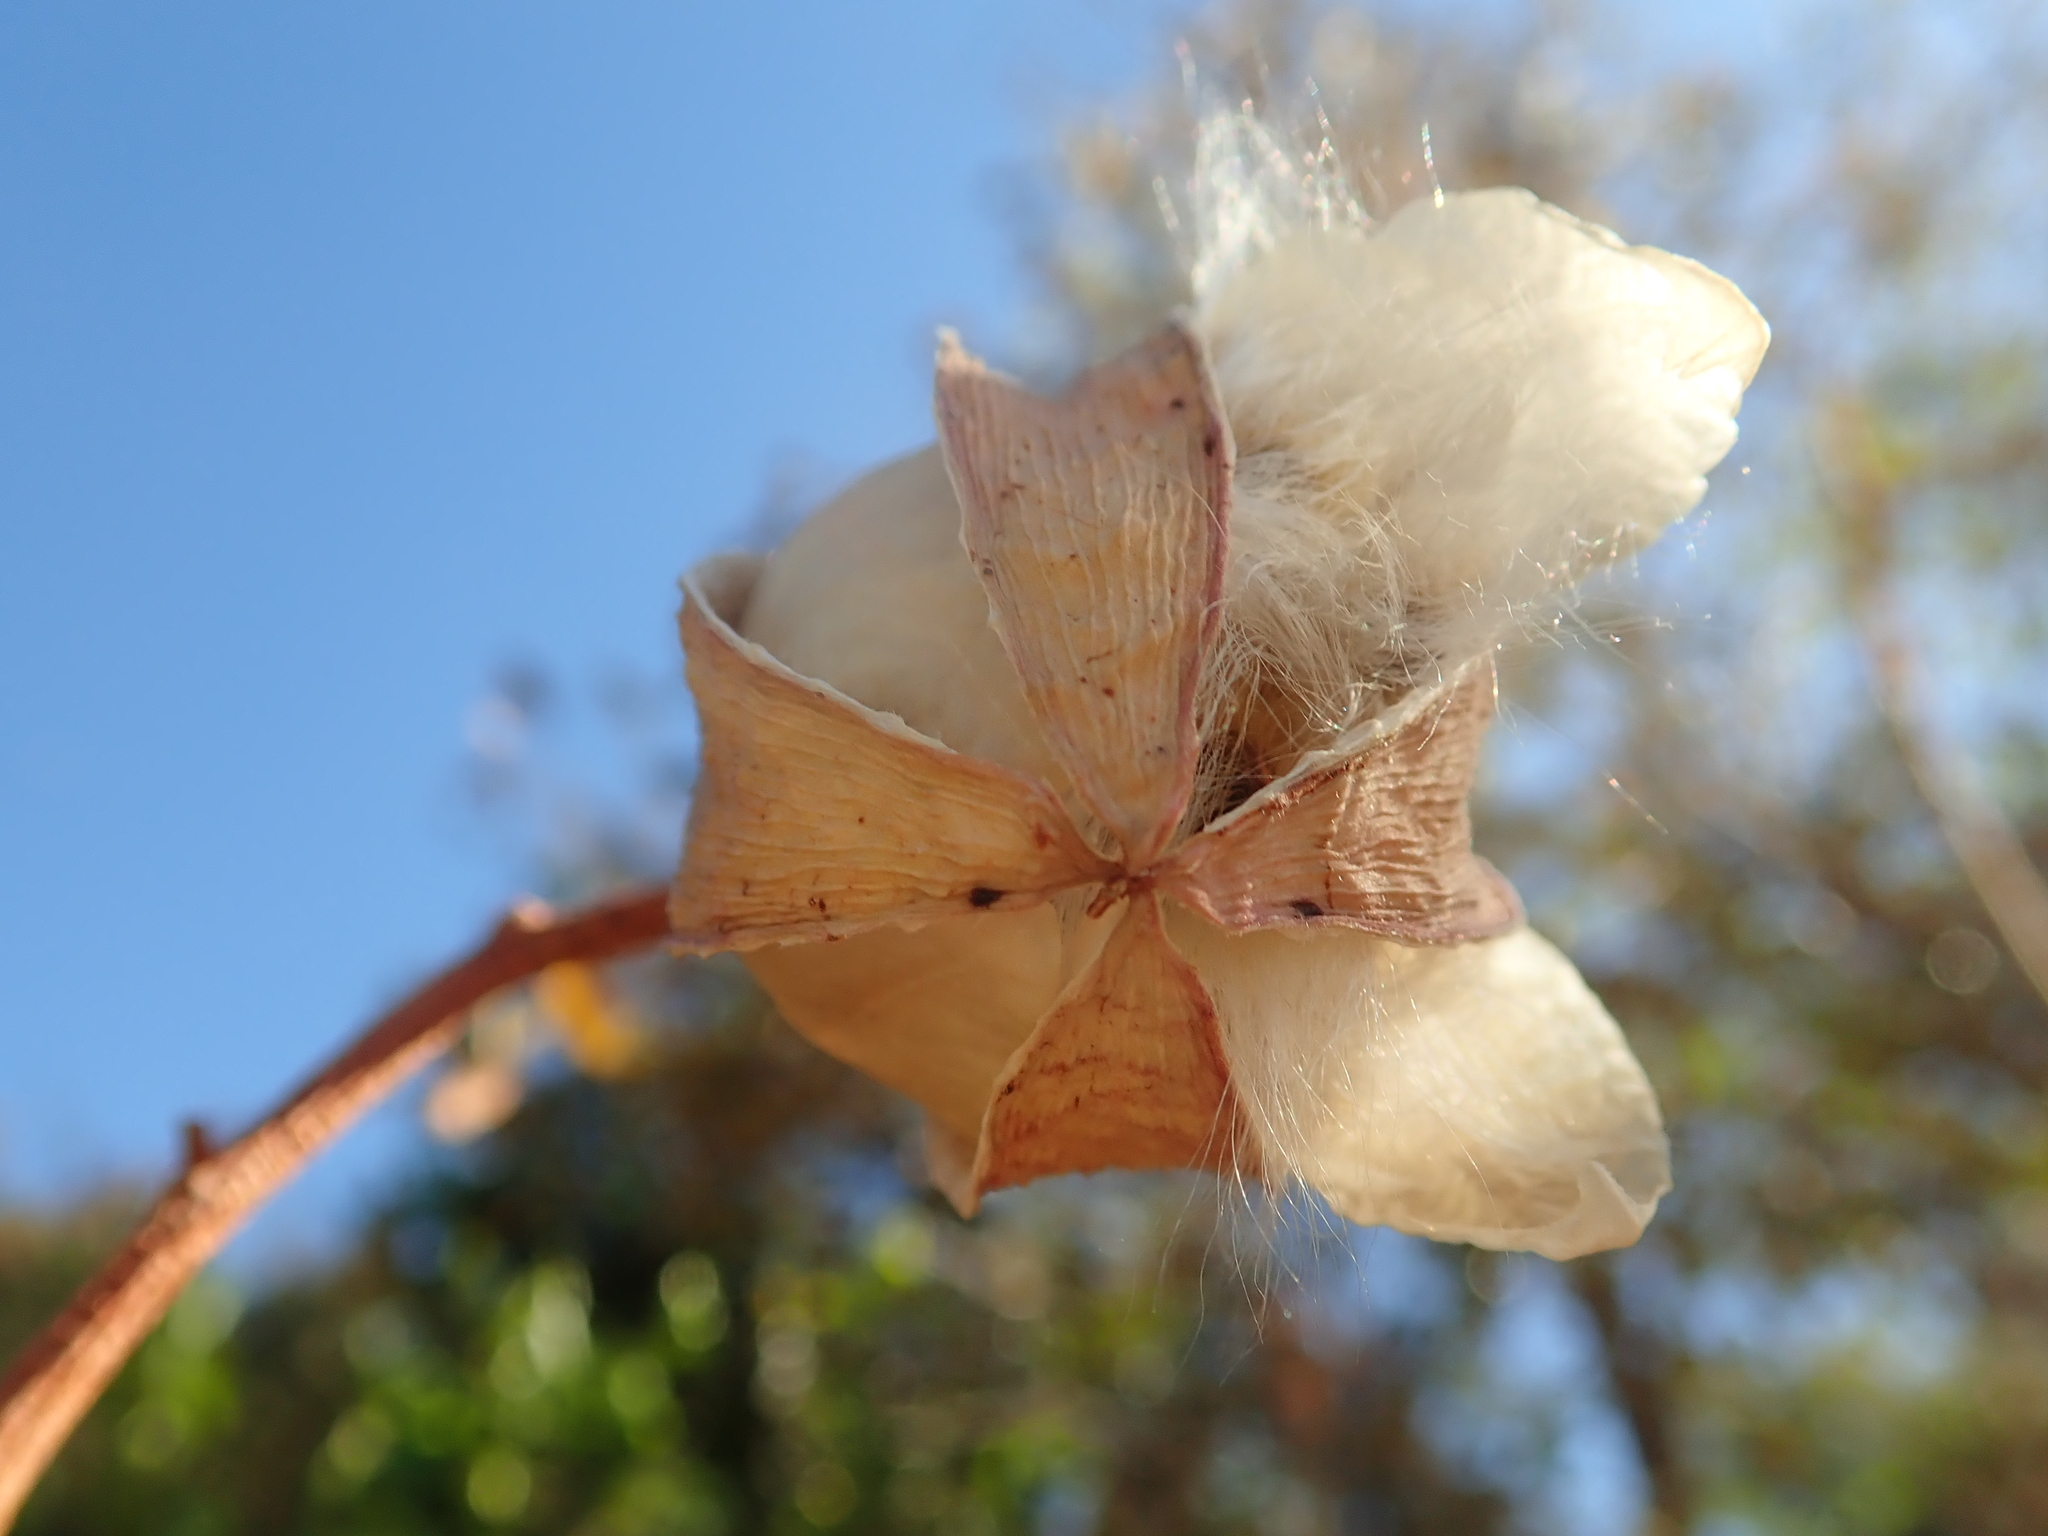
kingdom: Plantae
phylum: Tracheophyta
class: Magnoliopsida
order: Malvales
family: Cochlospermaceae
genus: Cochlospermum
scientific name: Cochlospermum regium
